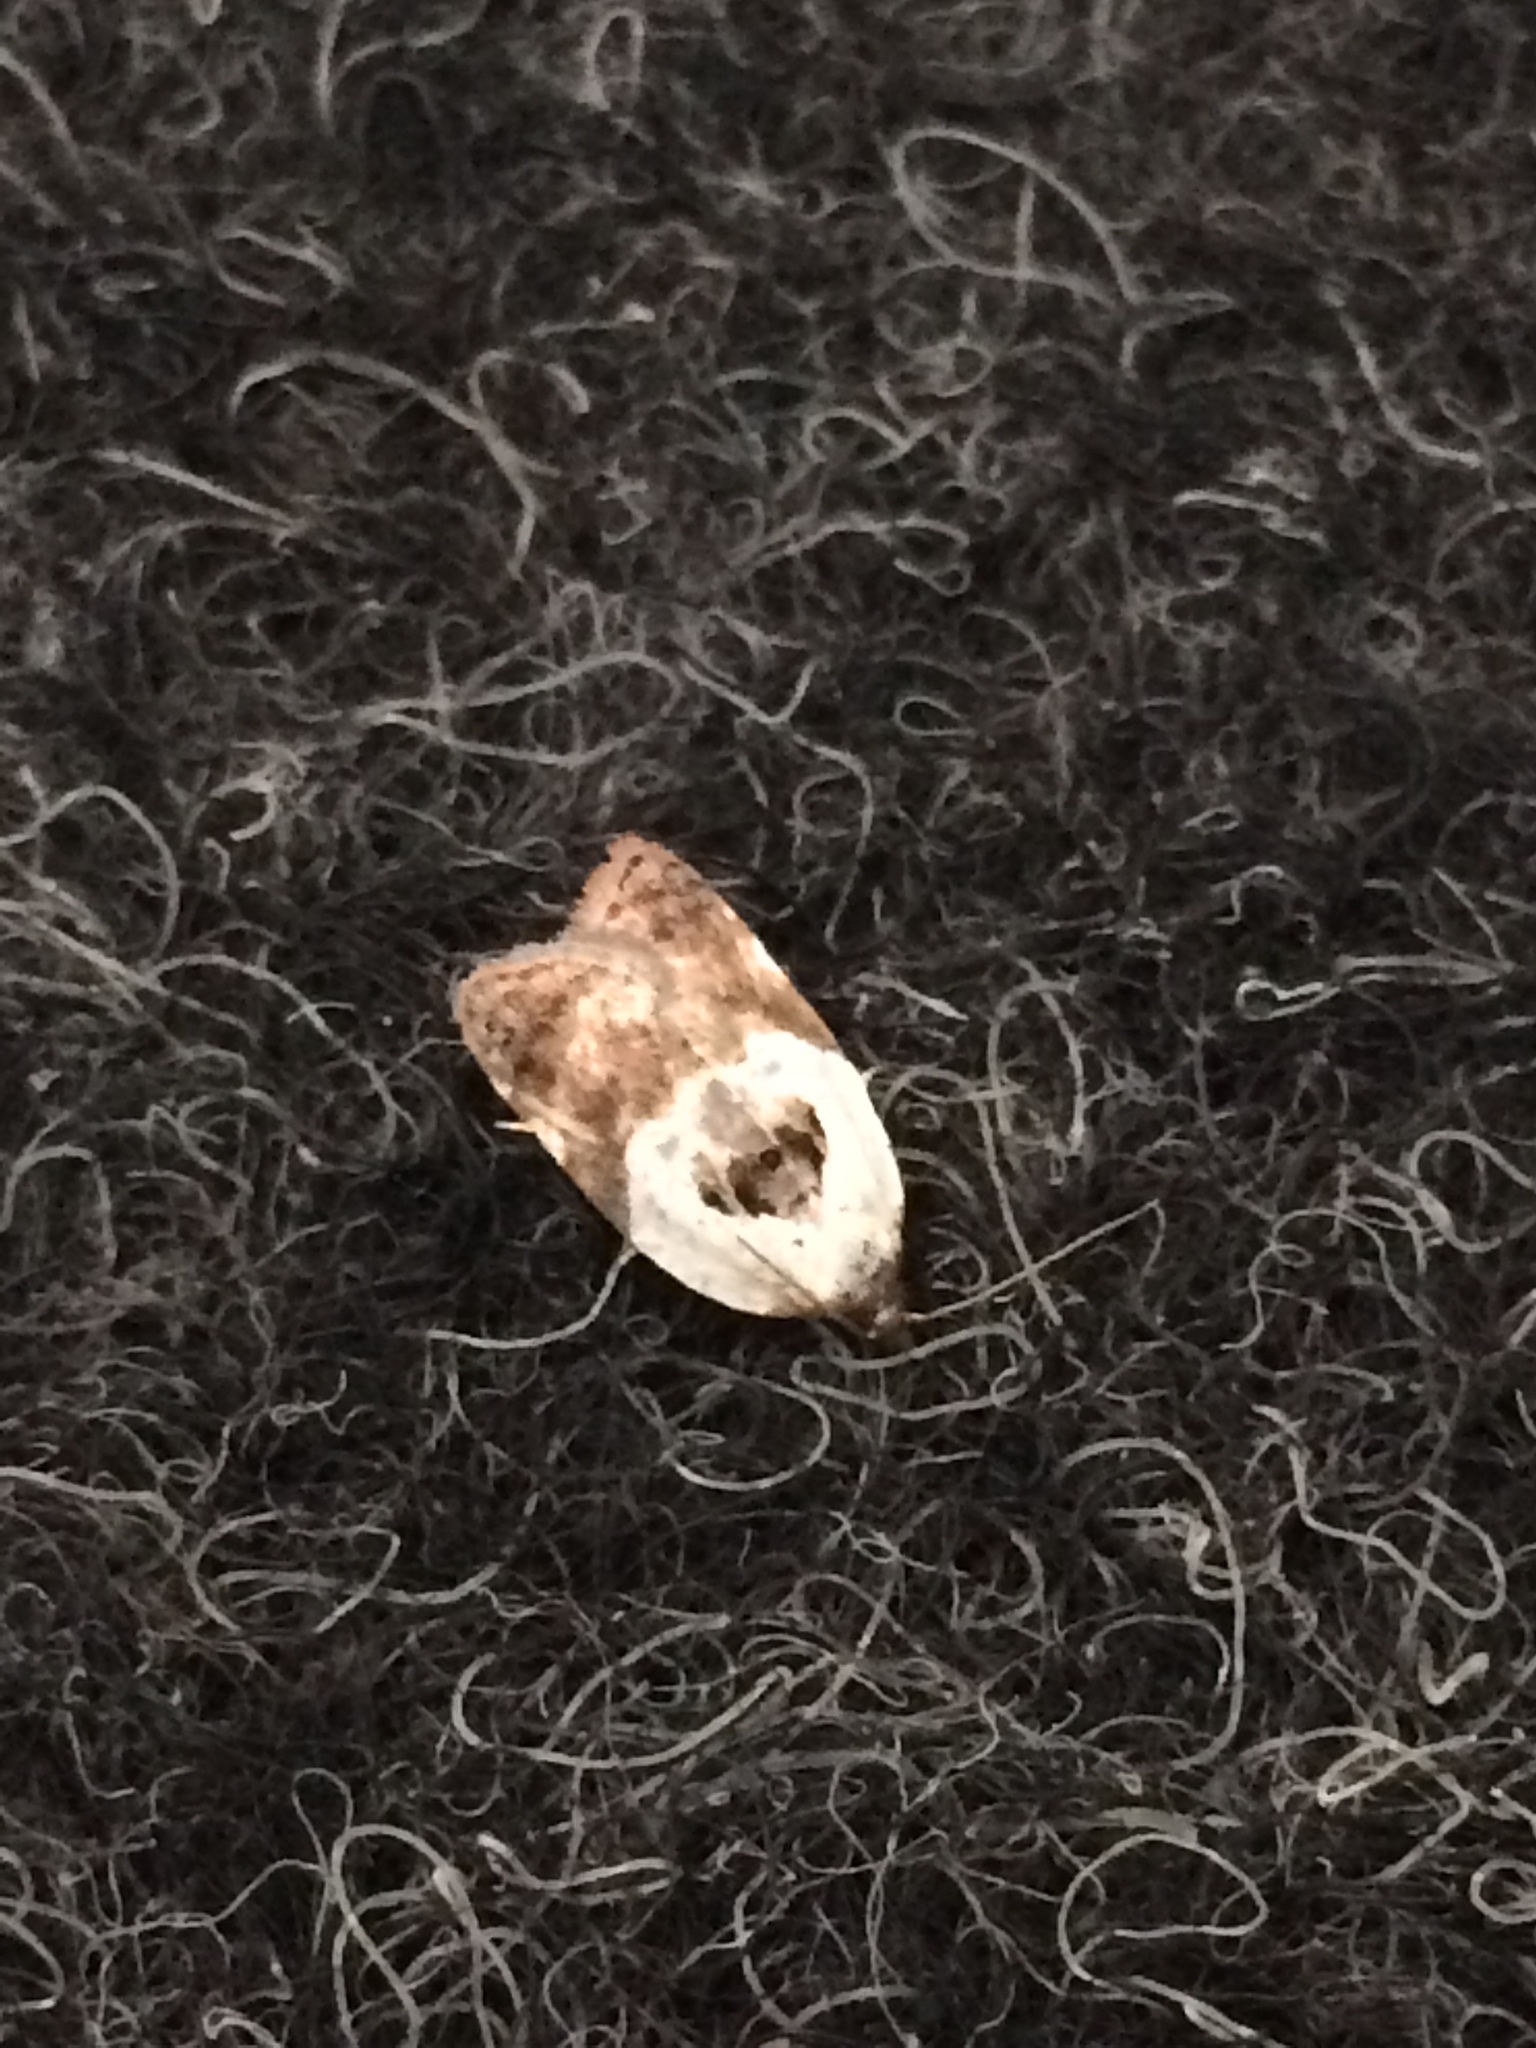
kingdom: Animalia
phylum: Arthropoda
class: Insecta
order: Lepidoptera
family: Tortricidae
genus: Acleris
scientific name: Acleris variegana
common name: Garden rose tortrix
